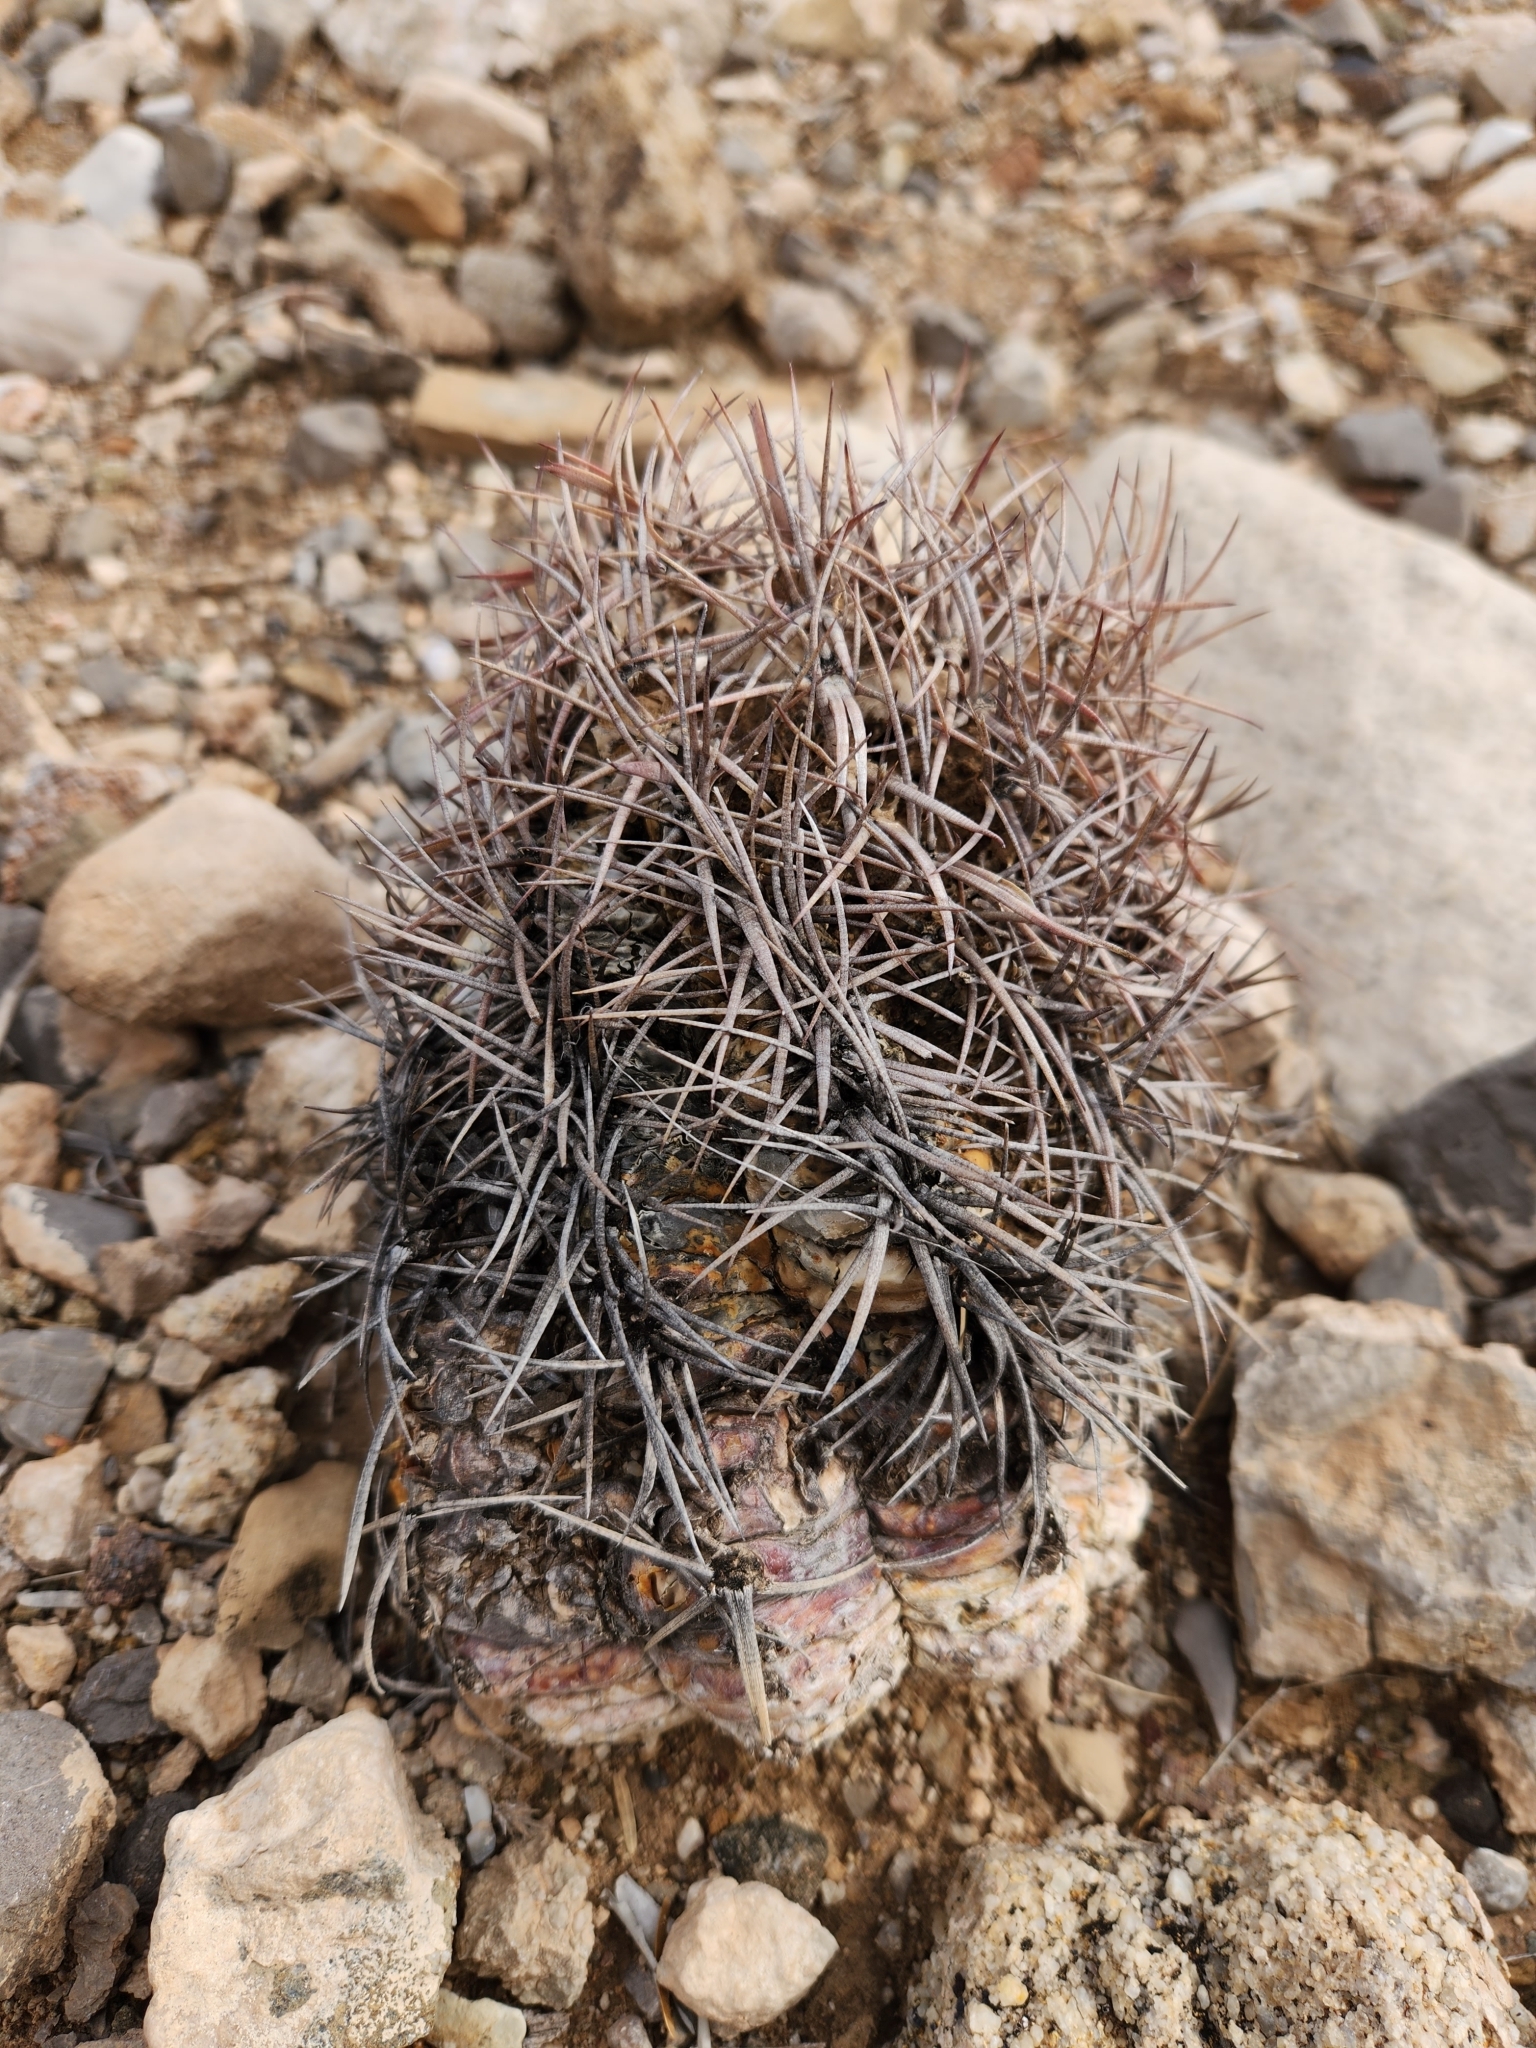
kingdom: Plantae
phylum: Tracheophyta
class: Magnoliopsida
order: Caryophyllales
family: Cactaceae
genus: Echinocactus
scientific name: Echinocactus horizonthalonius
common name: Devilshead
